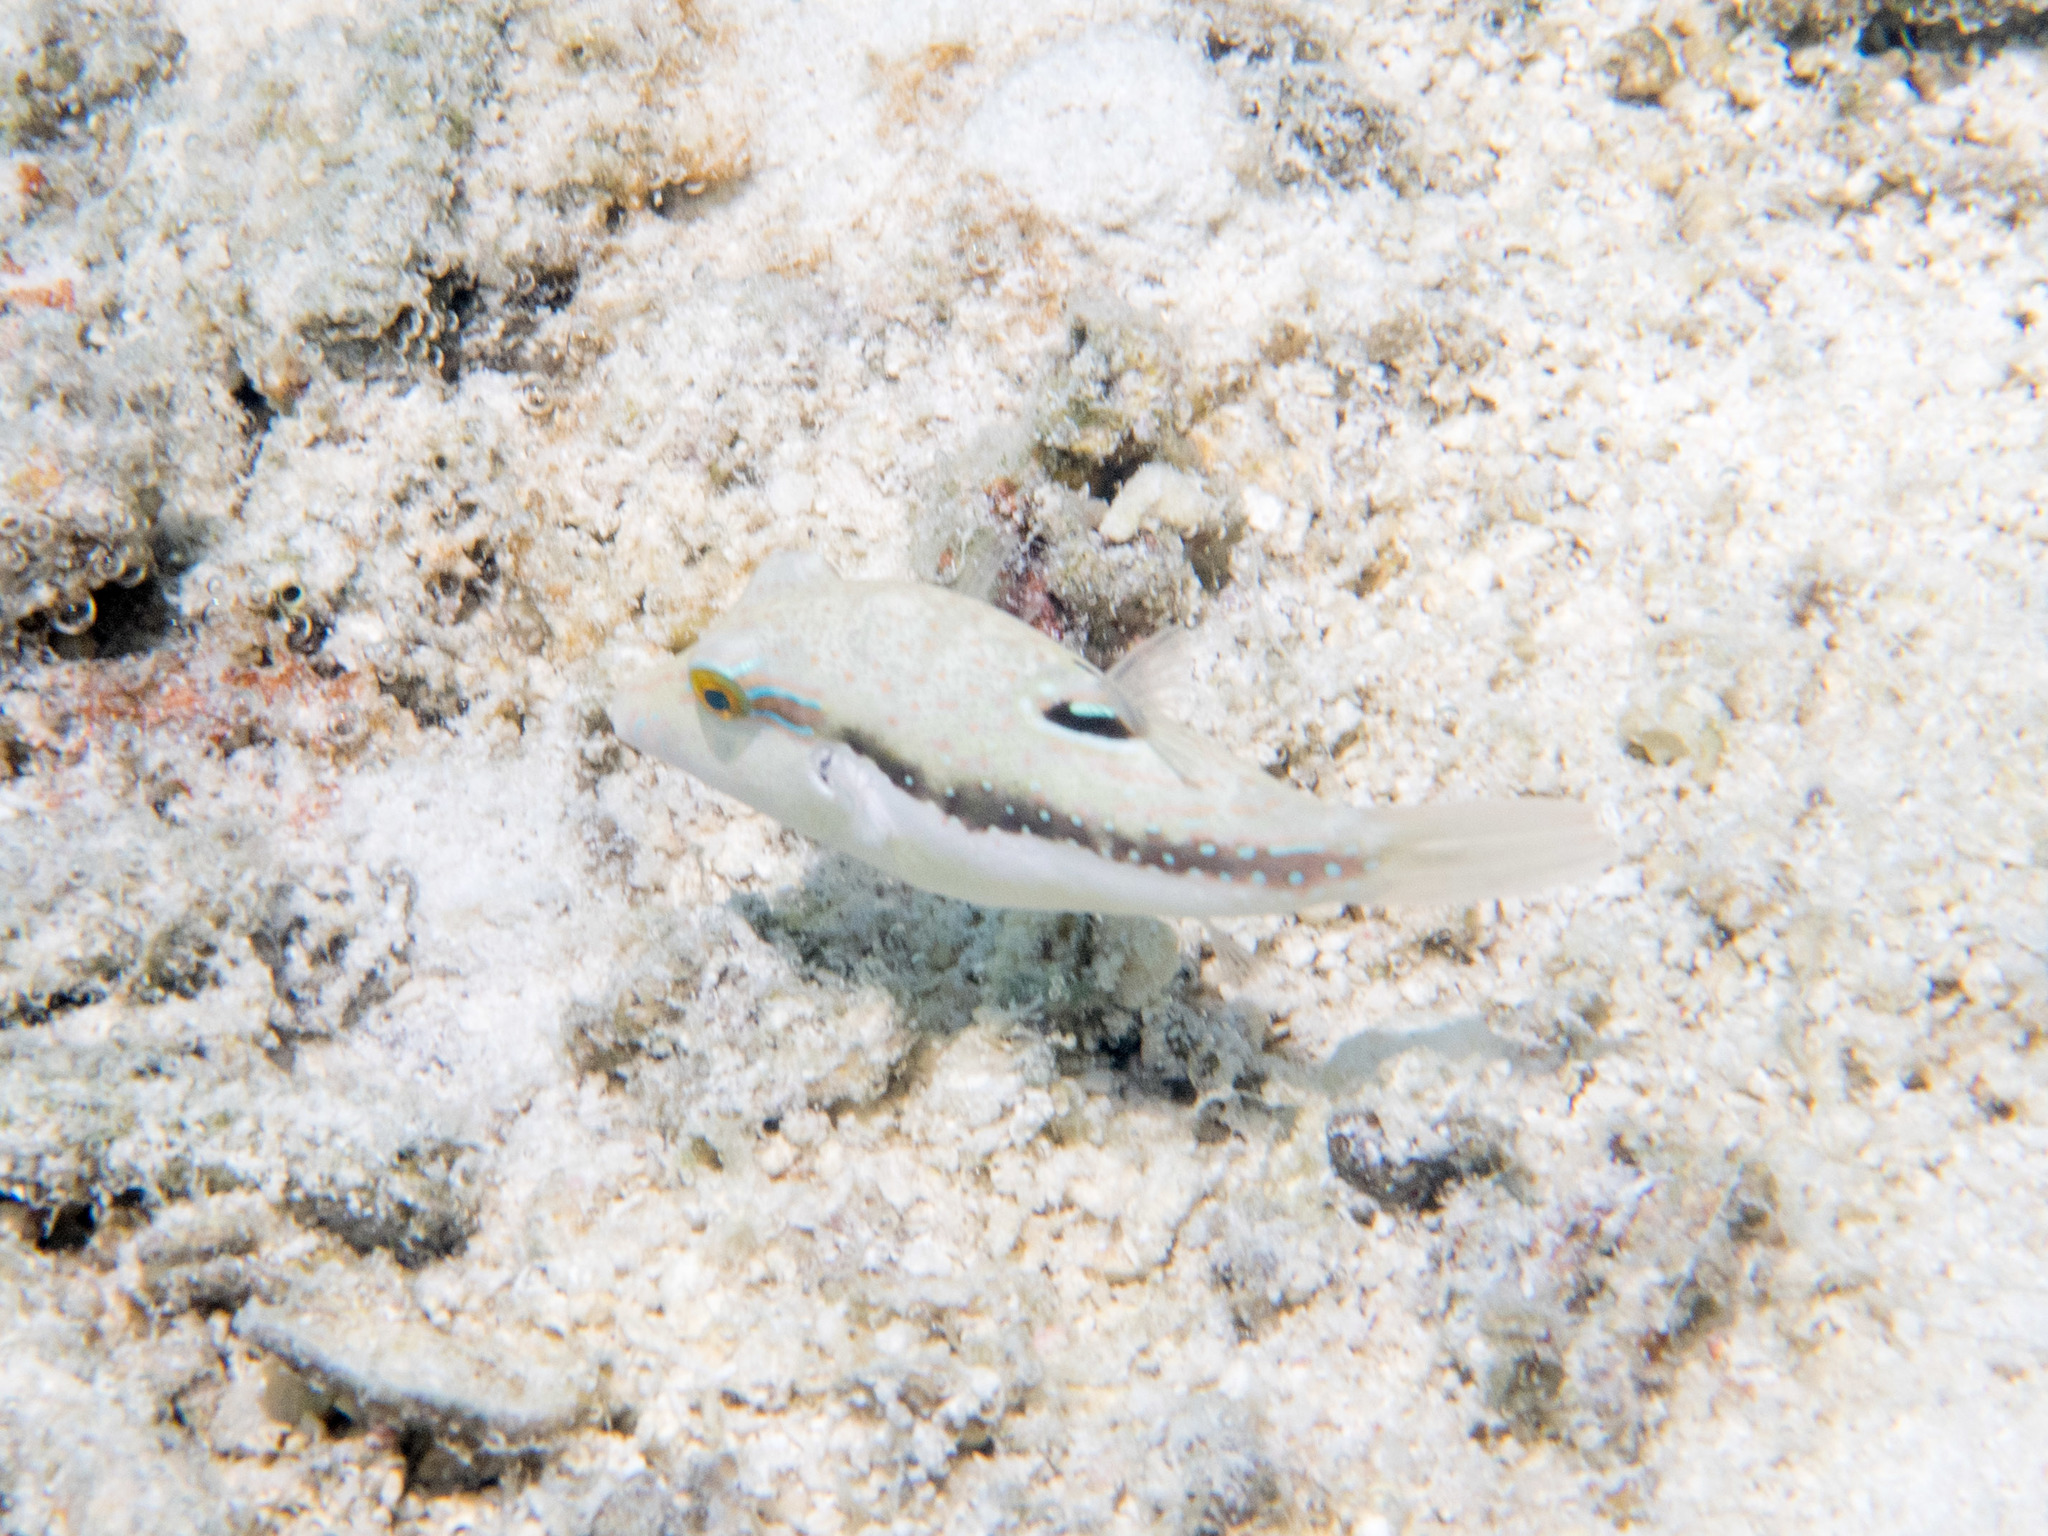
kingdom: Animalia
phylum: Chordata
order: Tetraodontiformes
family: Tetraodontidae
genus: Canthigaster
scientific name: Canthigaster bennetti
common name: Bennett's pufferfish
